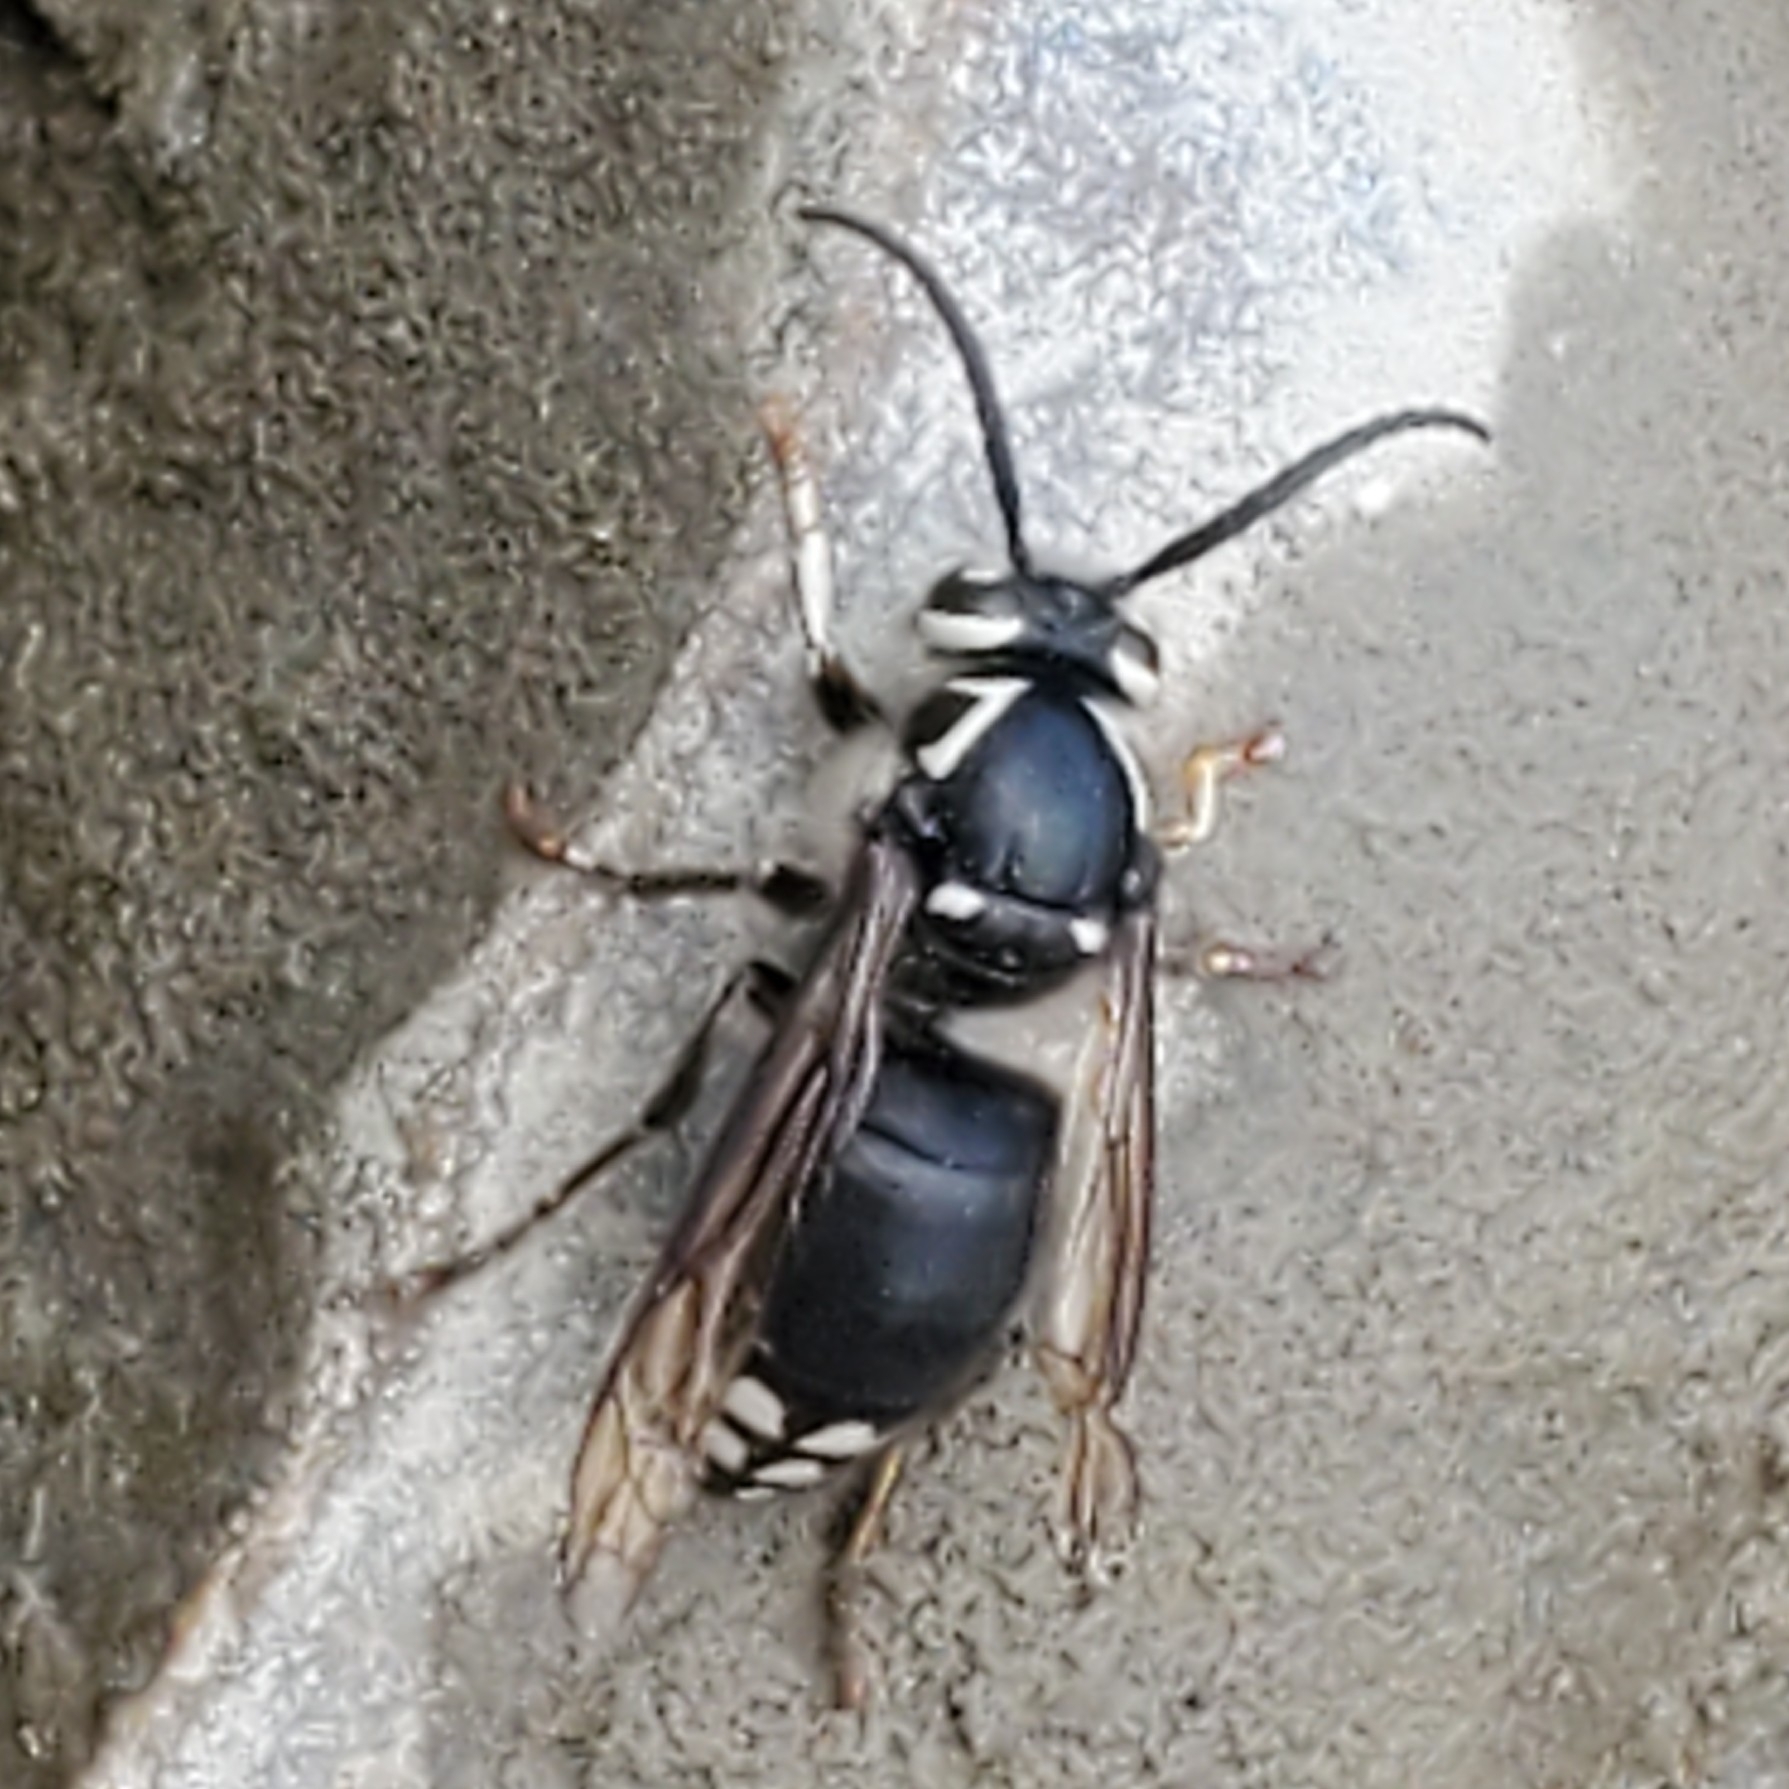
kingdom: Animalia
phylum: Arthropoda
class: Insecta
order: Hymenoptera
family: Vespidae
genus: Dolichovespula
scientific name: Dolichovespula maculata
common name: Bald-faced hornet
